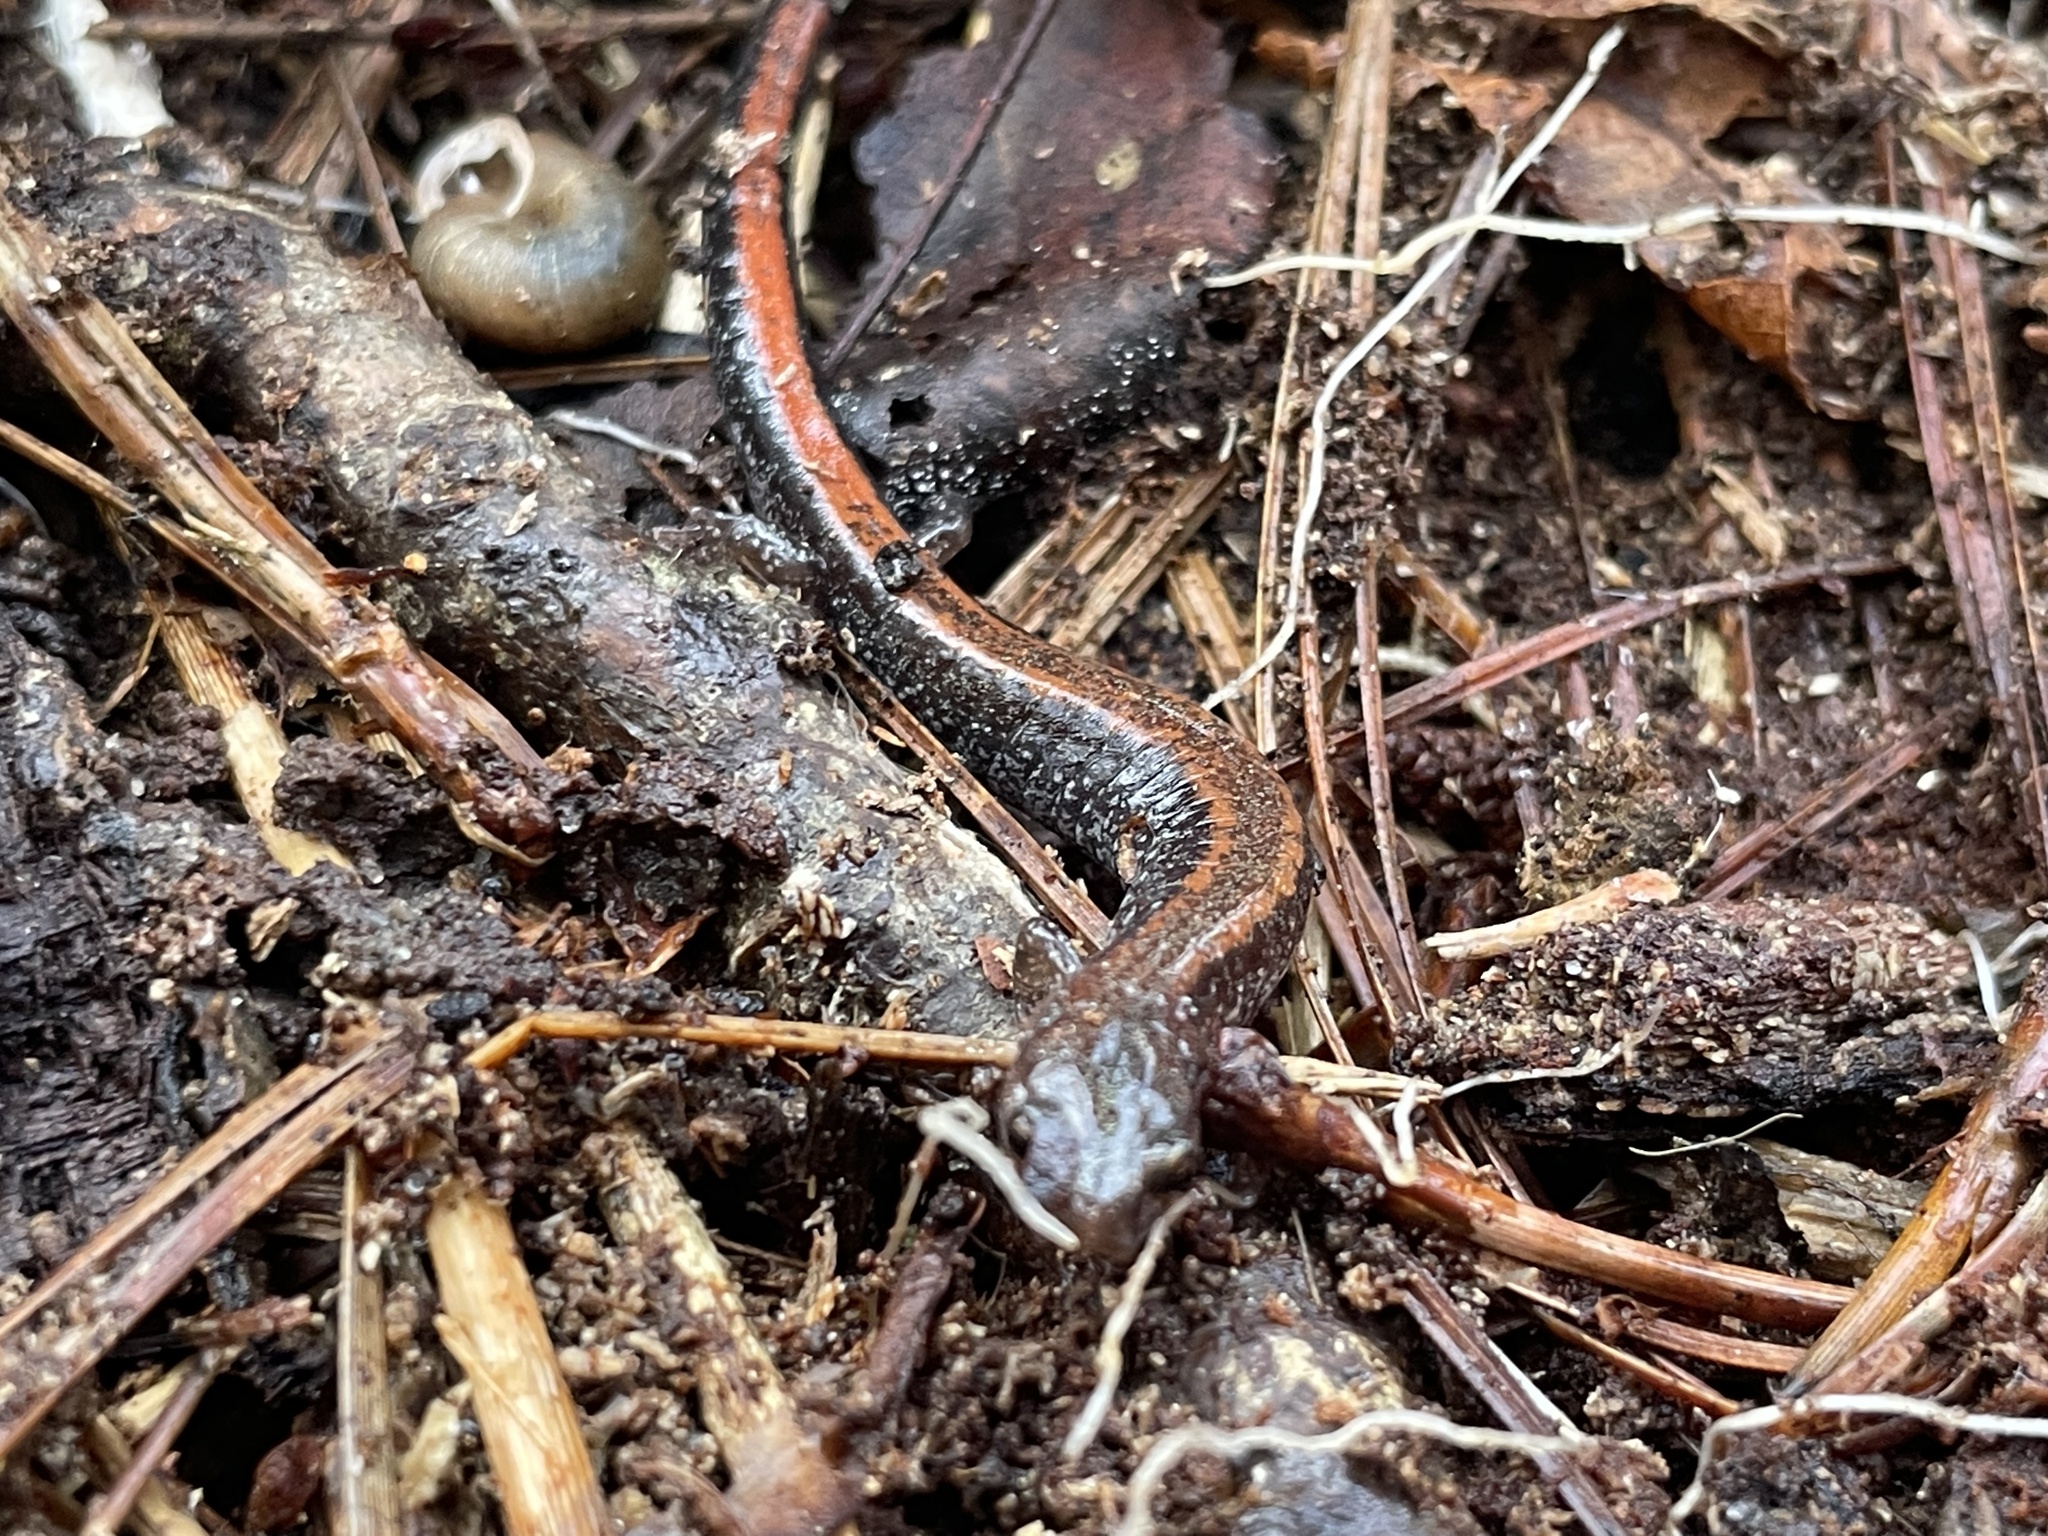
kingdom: Animalia
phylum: Chordata
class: Amphibia
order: Caudata
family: Plethodontidae
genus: Plethodon
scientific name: Plethodon cinereus
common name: Redback salamander
